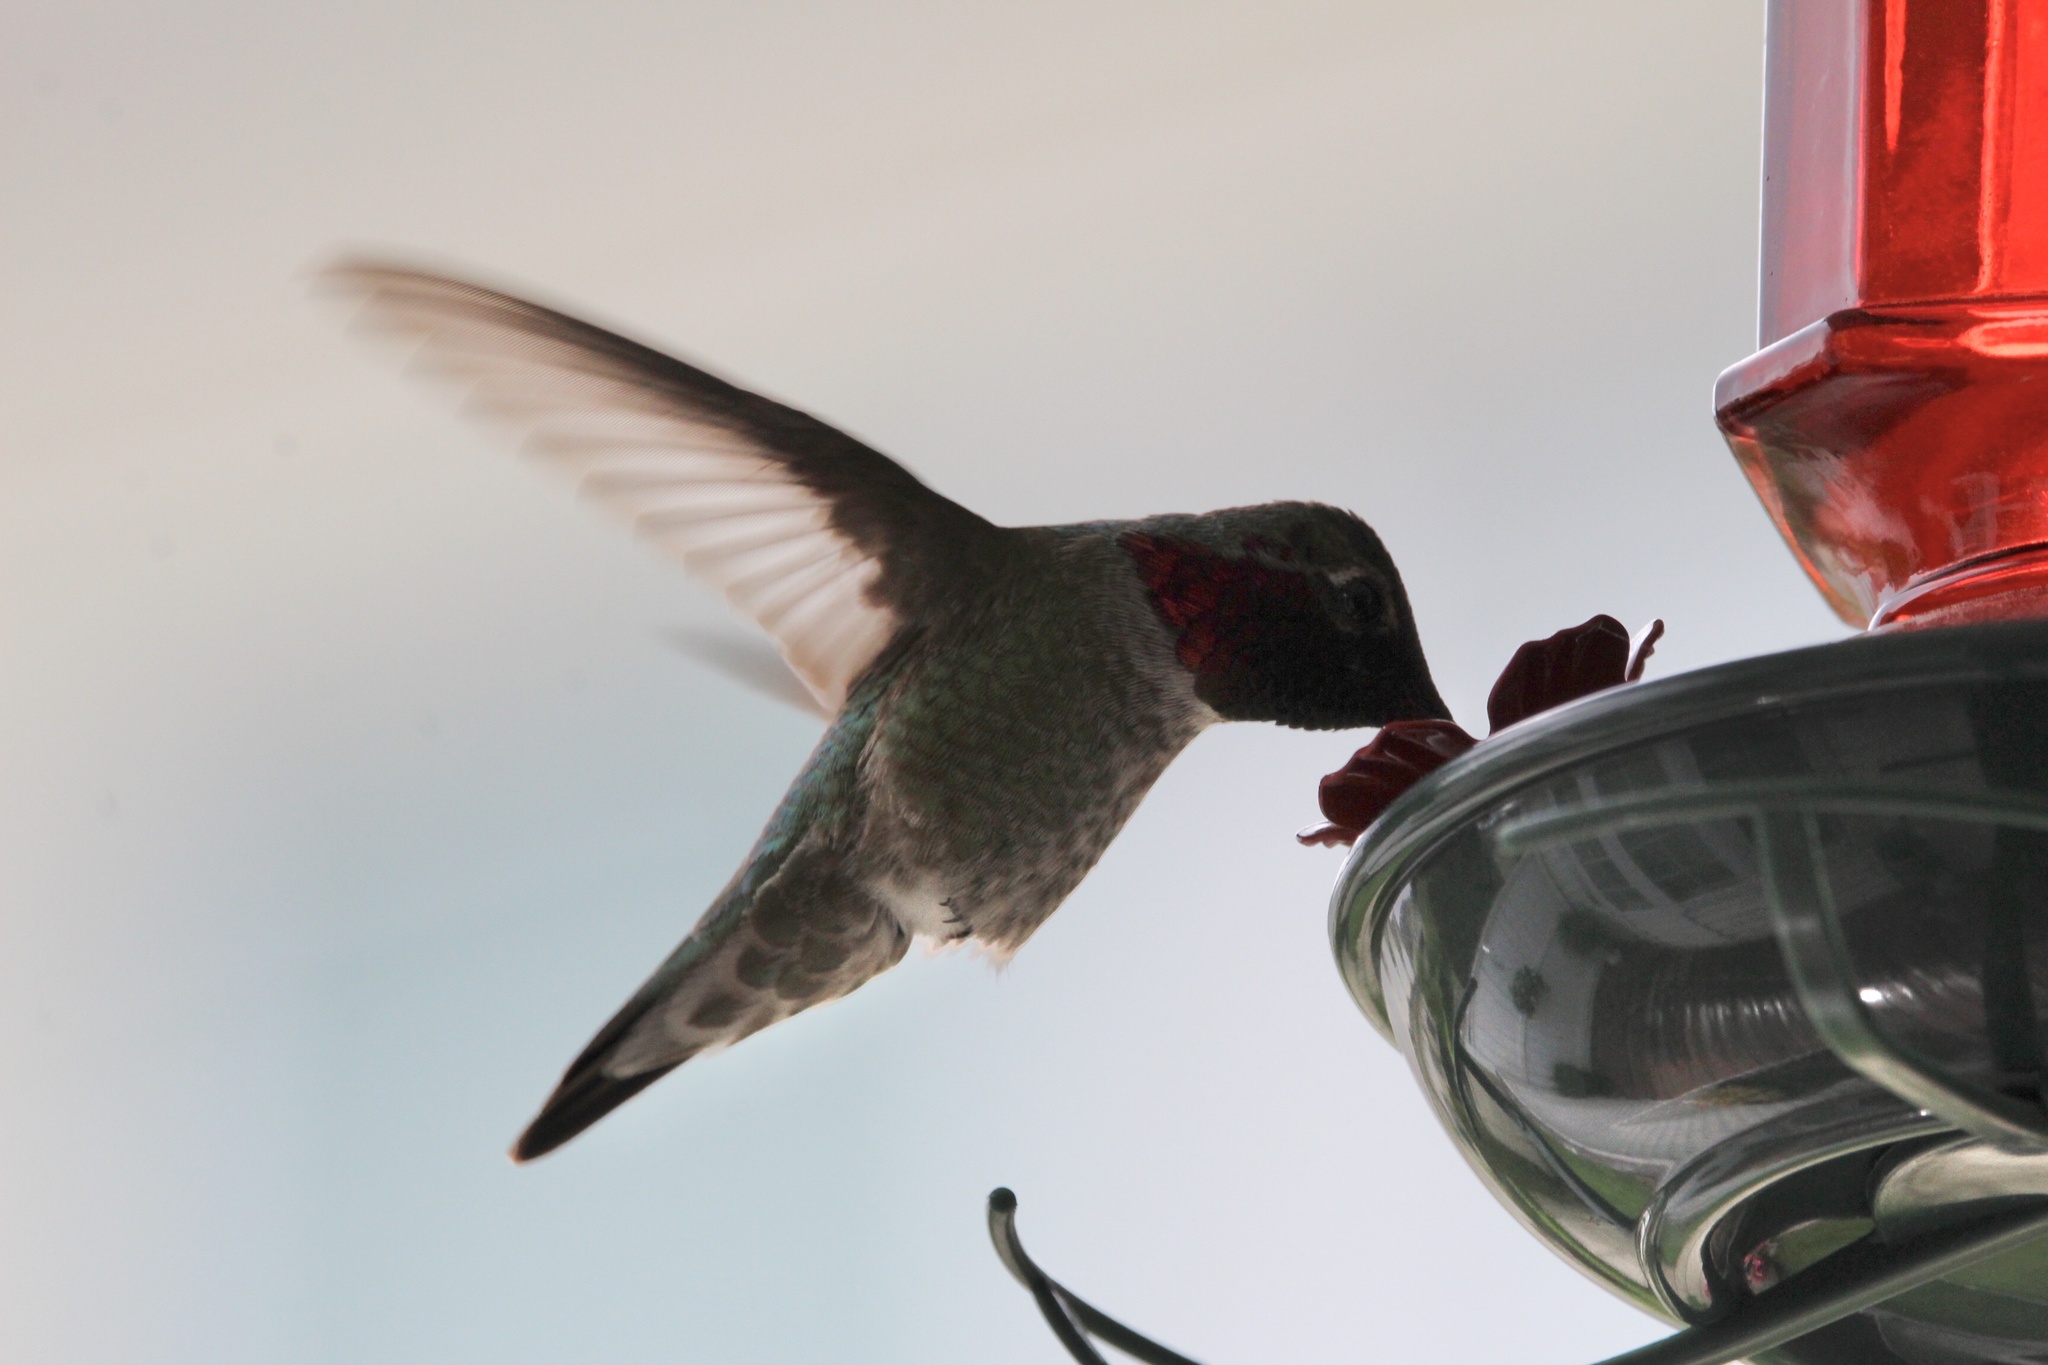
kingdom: Animalia
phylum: Chordata
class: Aves
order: Apodiformes
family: Trochilidae
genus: Calypte
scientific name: Calypte anna
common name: Anna's hummingbird
